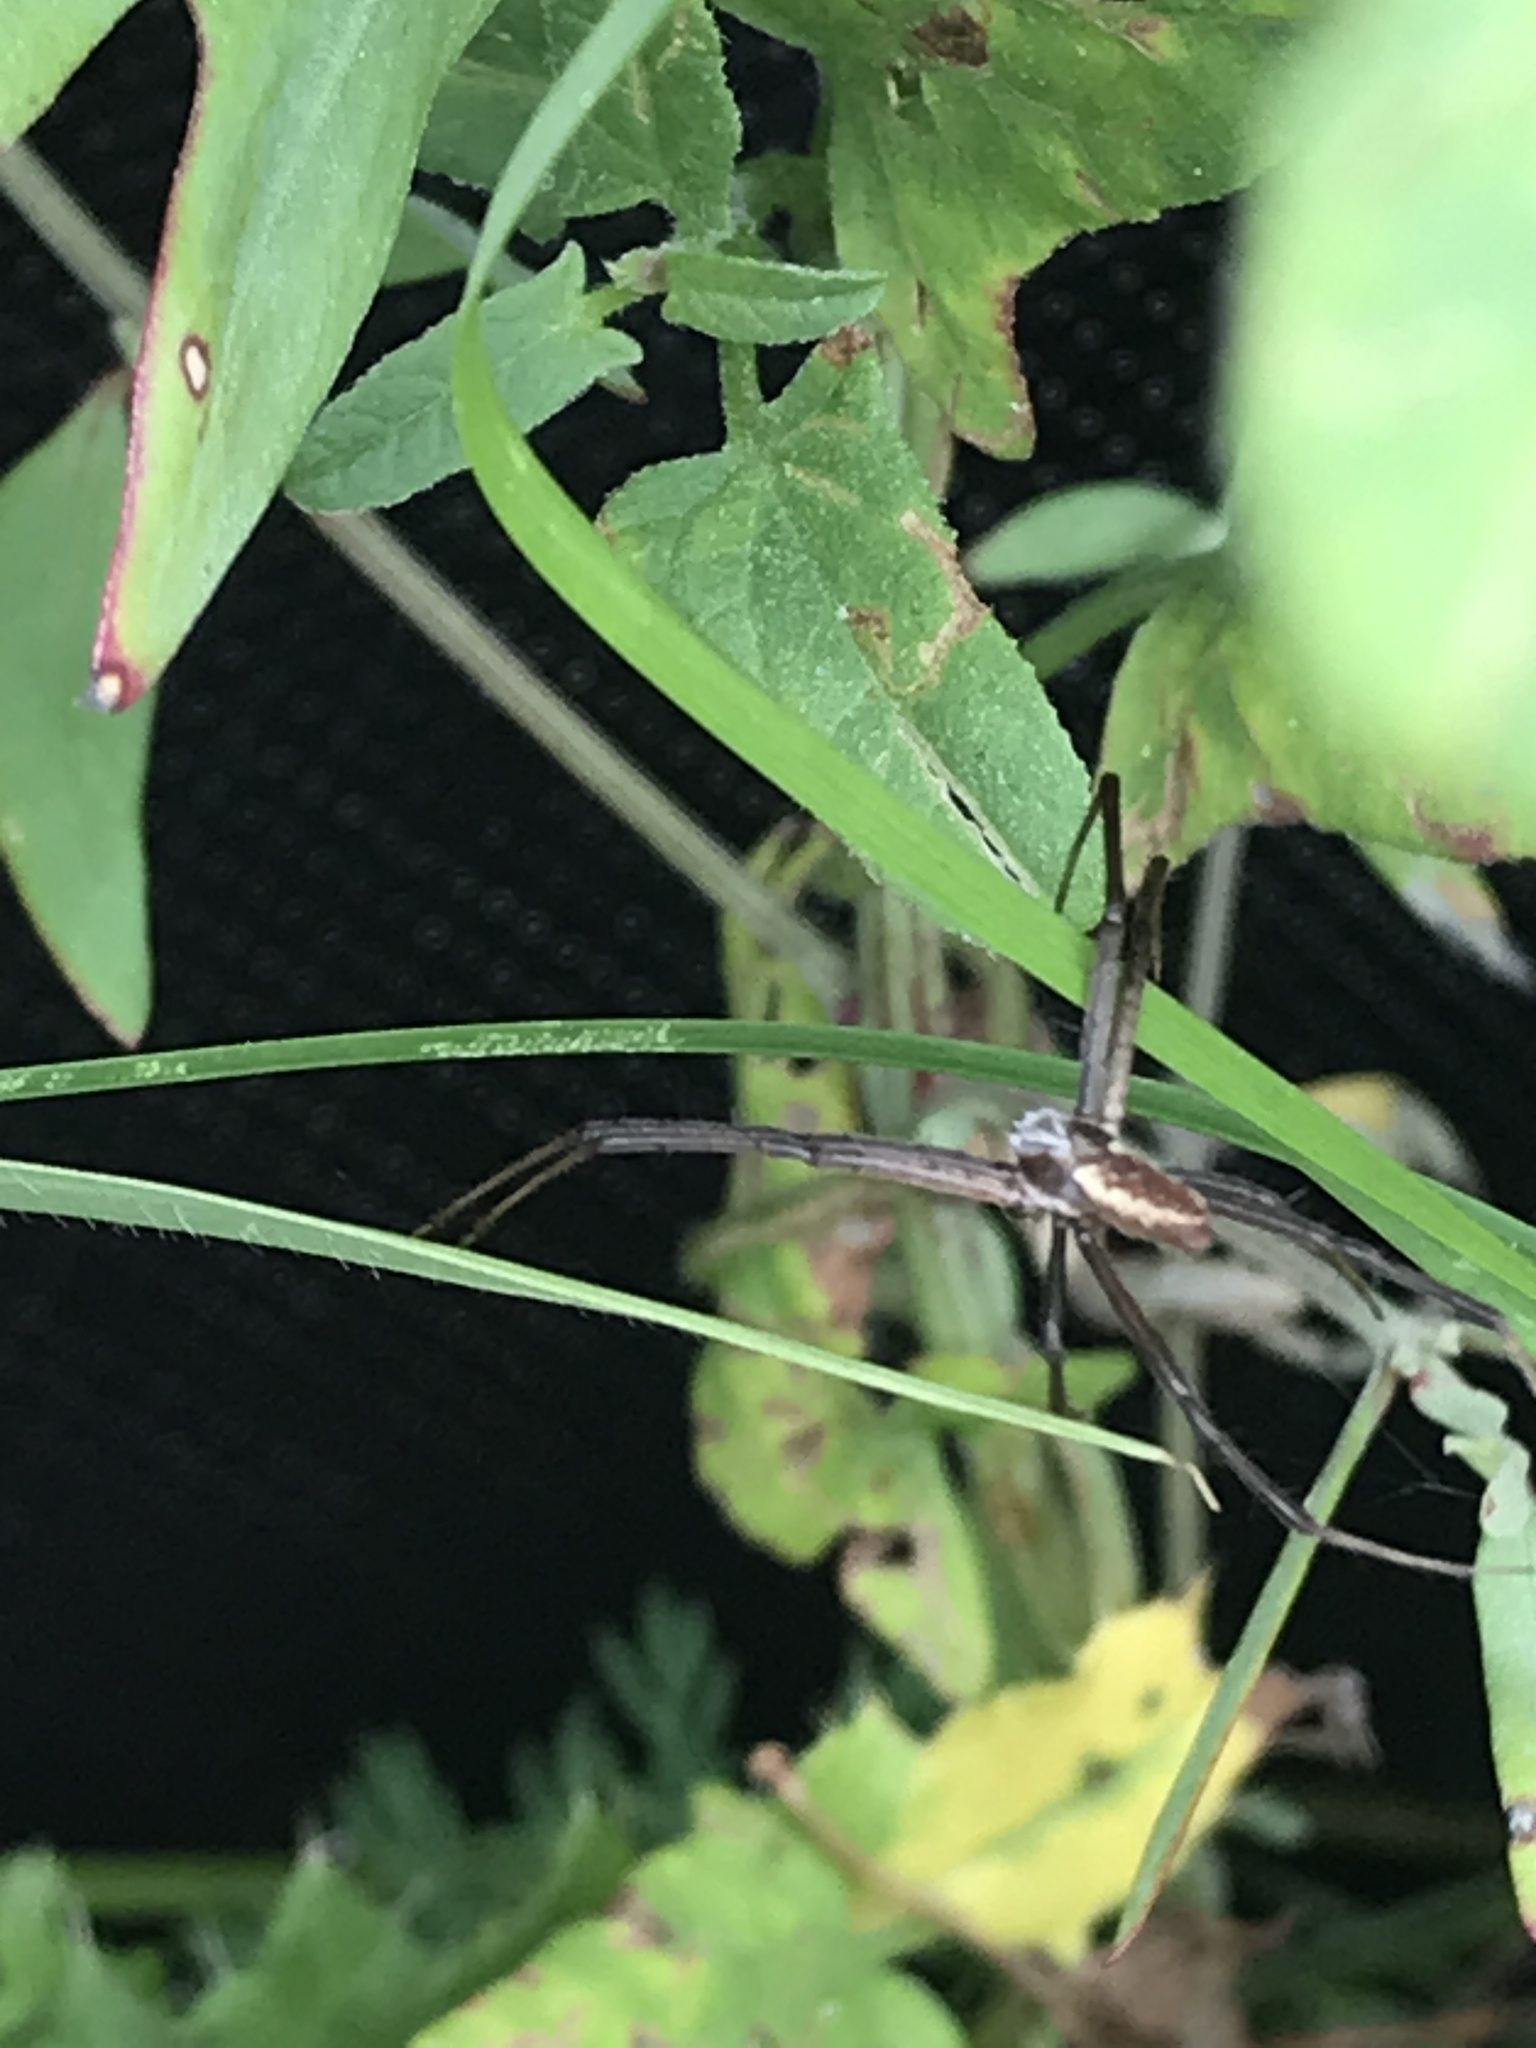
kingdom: Animalia
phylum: Arthropoda
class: Arachnida
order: Araneae
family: Araneidae
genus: Argiope
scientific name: Argiope aurantia
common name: Orb weavers
